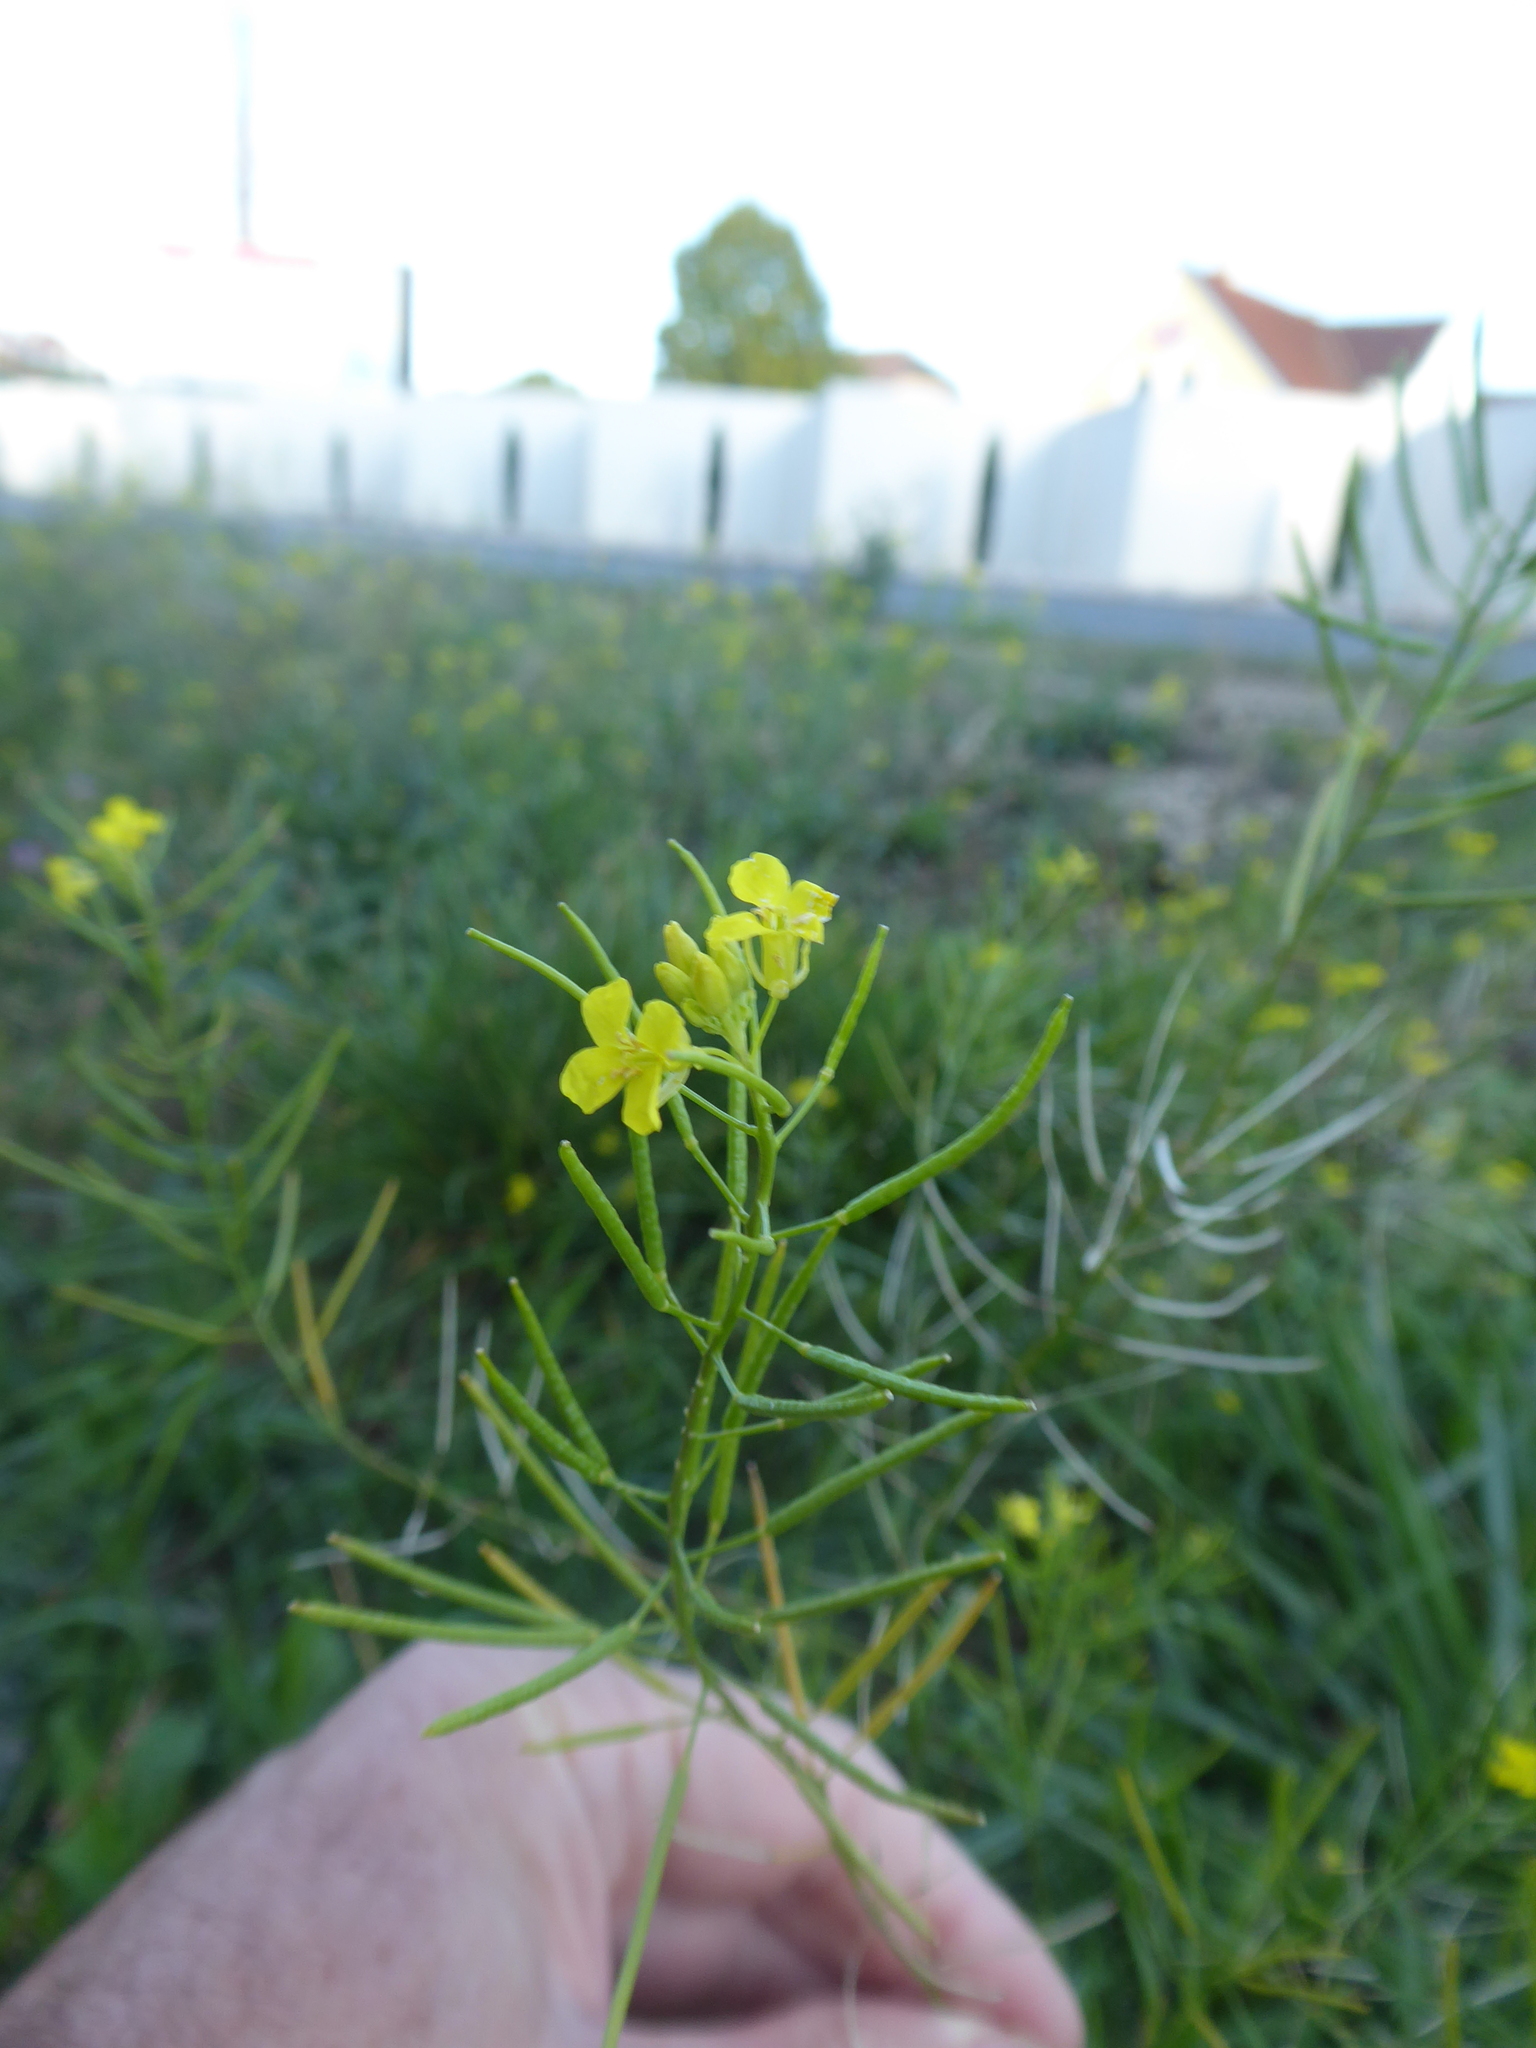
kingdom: Plantae
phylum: Tracheophyta
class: Magnoliopsida
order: Brassicales
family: Brassicaceae
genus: Sisymbrium
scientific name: Sisymbrium loeselii
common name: False london-rocket
